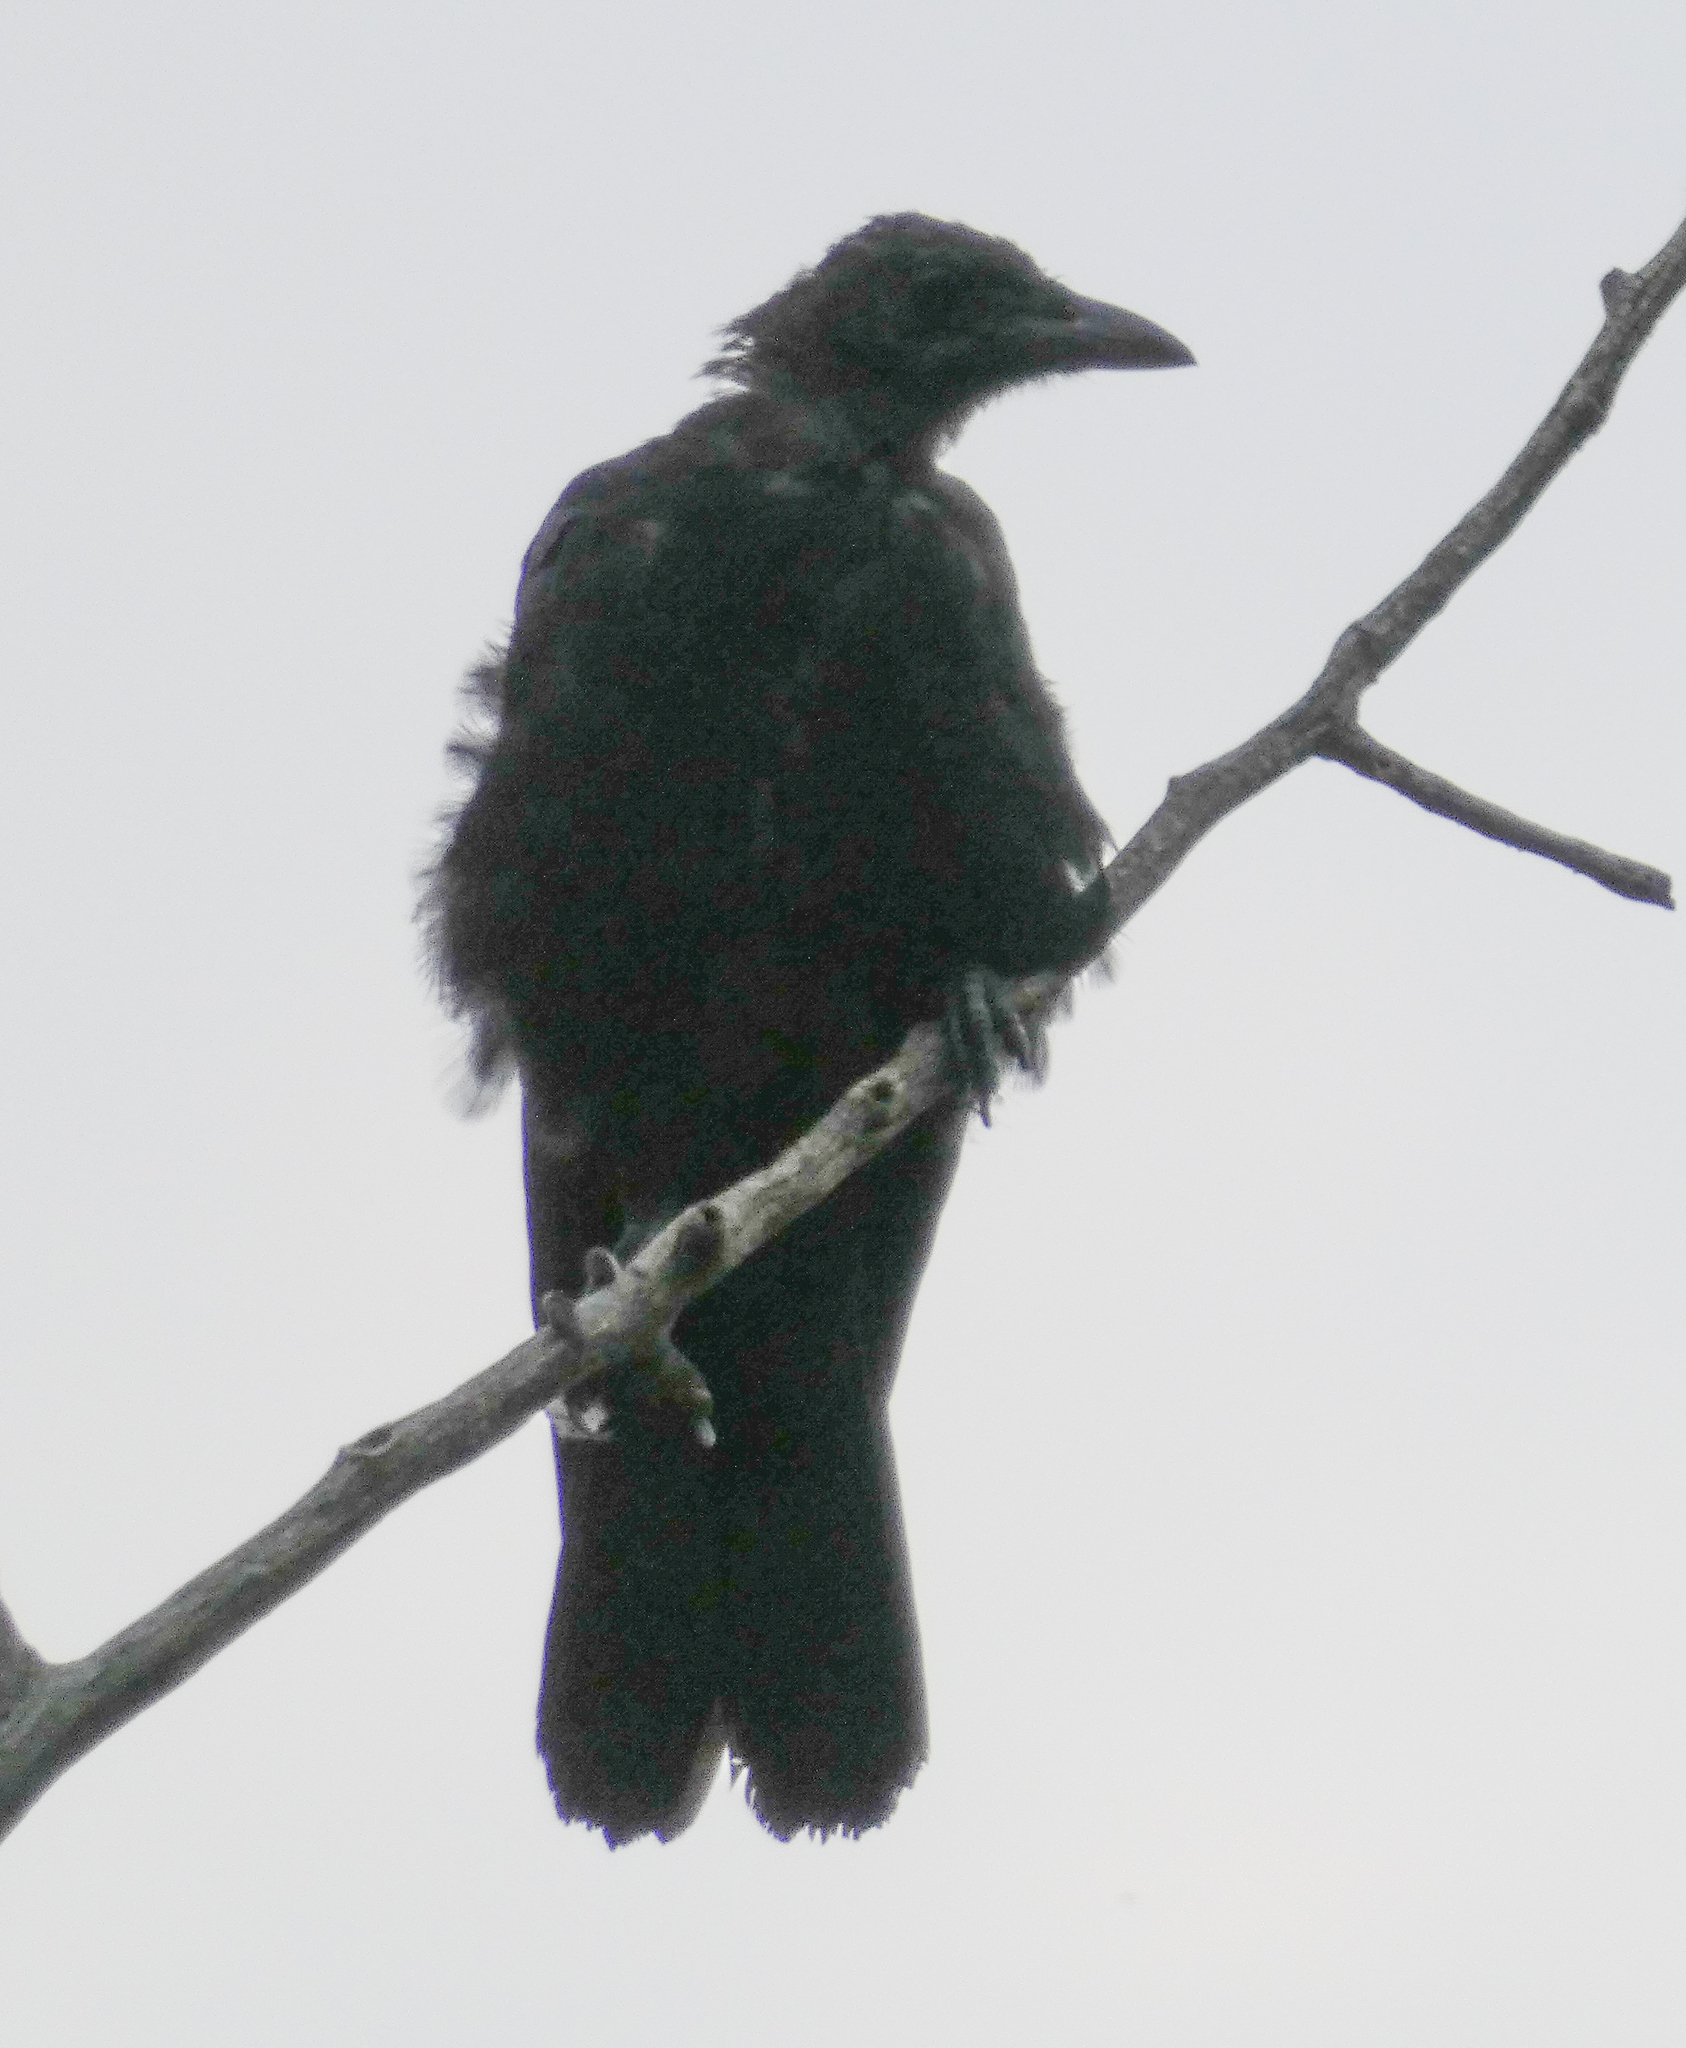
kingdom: Animalia
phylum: Chordata
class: Aves
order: Passeriformes
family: Corvidae
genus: Corvus
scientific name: Corvus brachyrhynchos
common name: American crow
